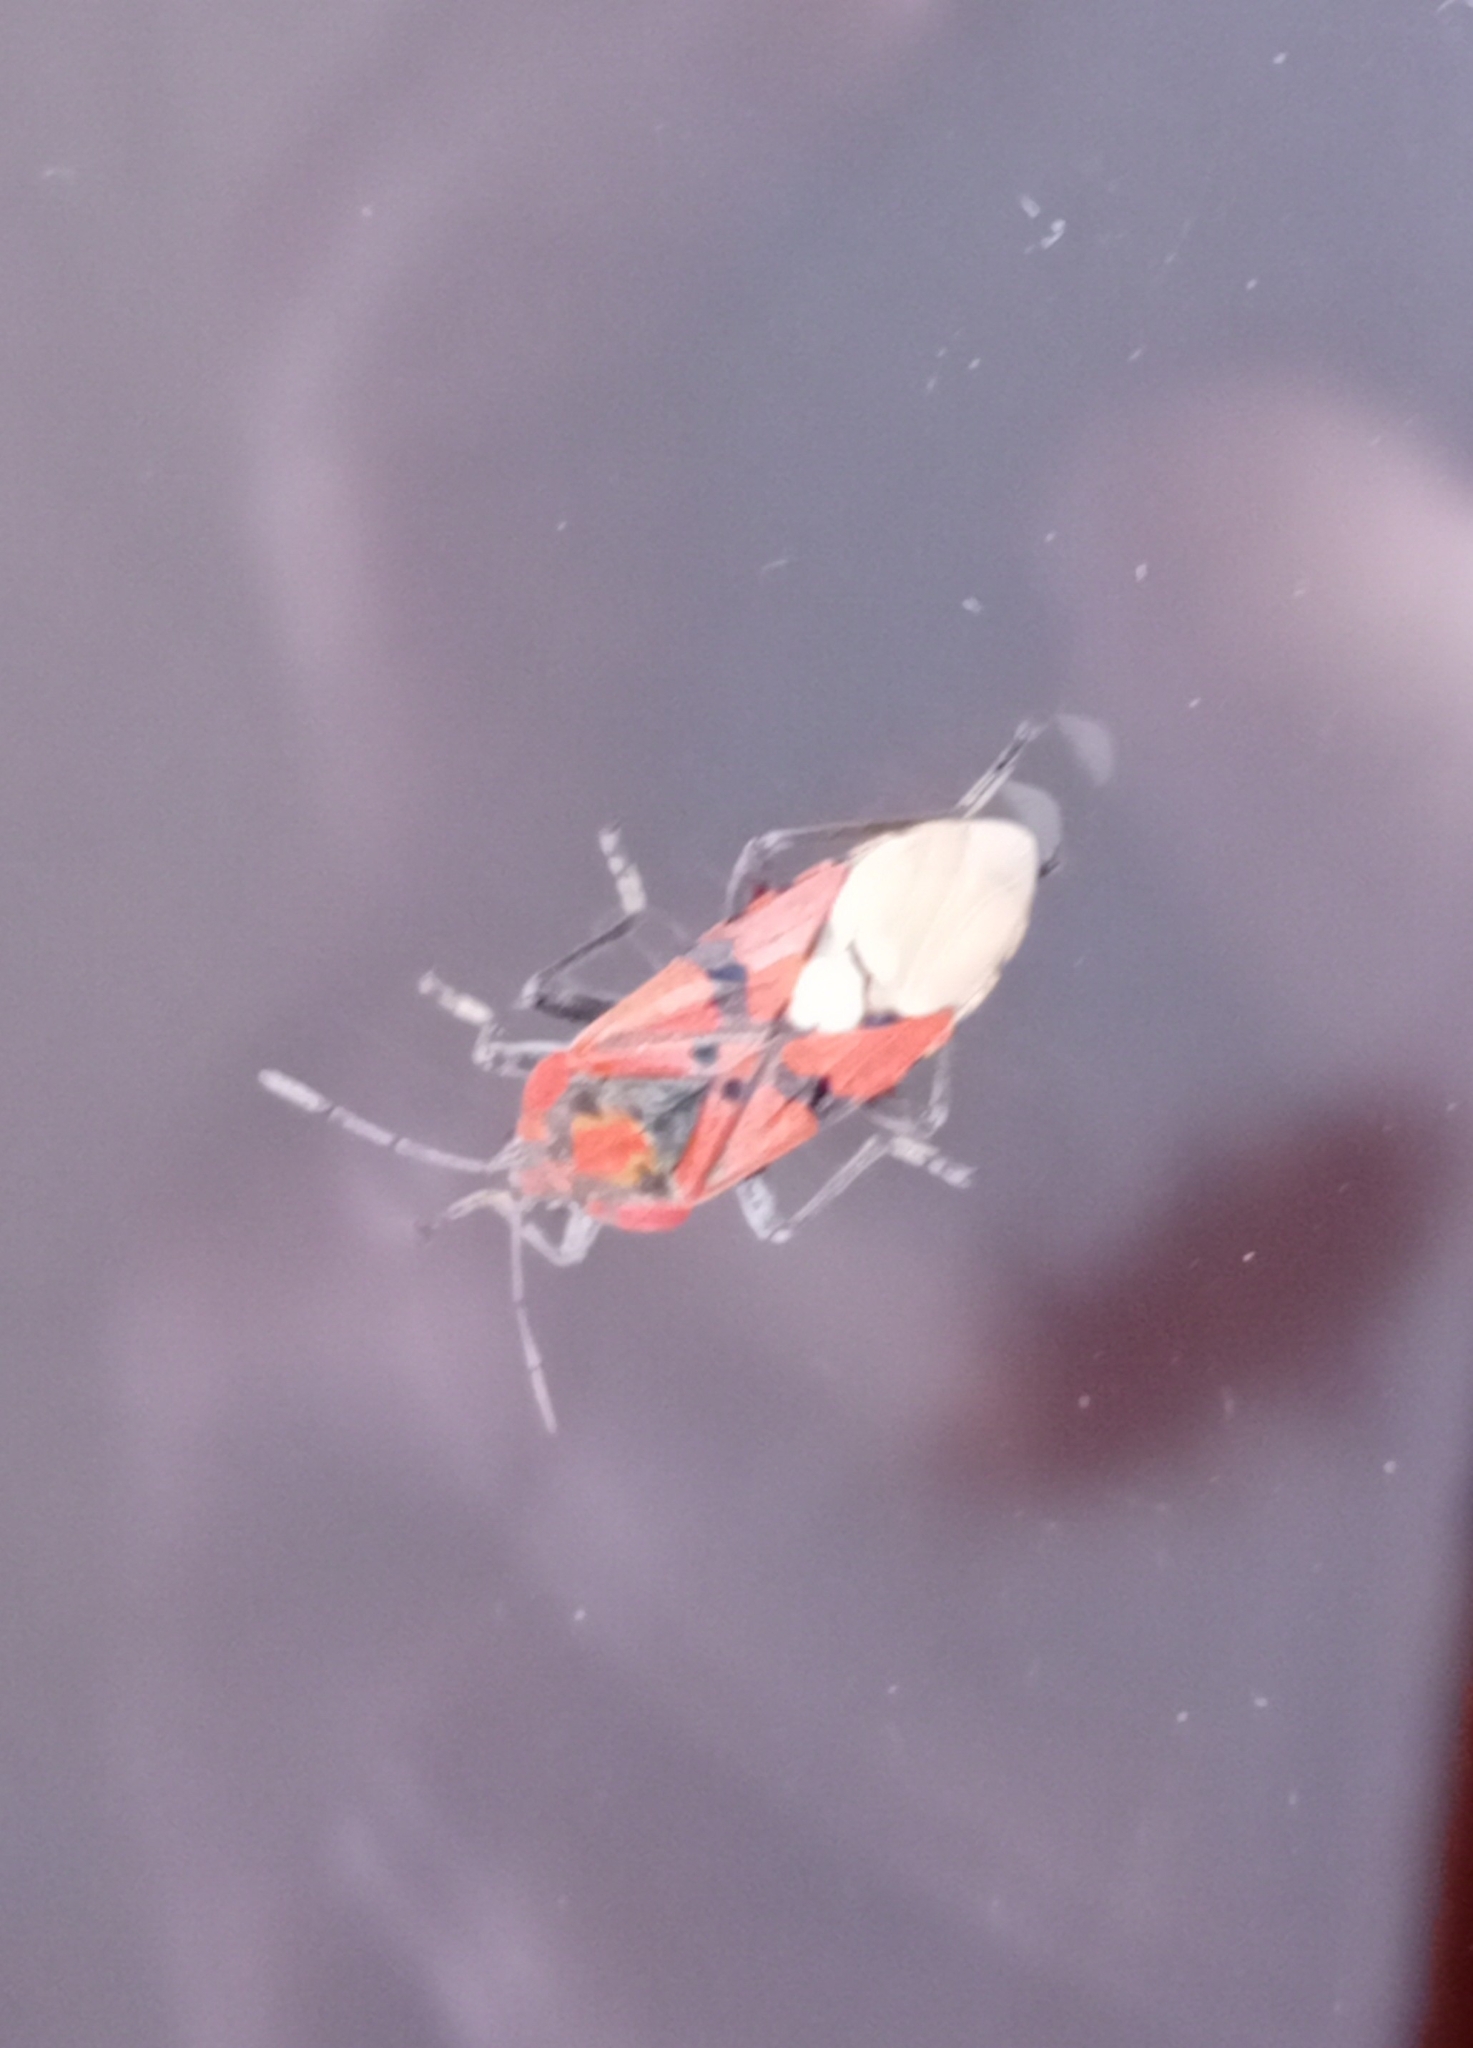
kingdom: Animalia
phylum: Arthropoda
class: Insecta
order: Hemiptera
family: Lygaeidae
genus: Spilostethus
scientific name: Spilostethus pandurus
